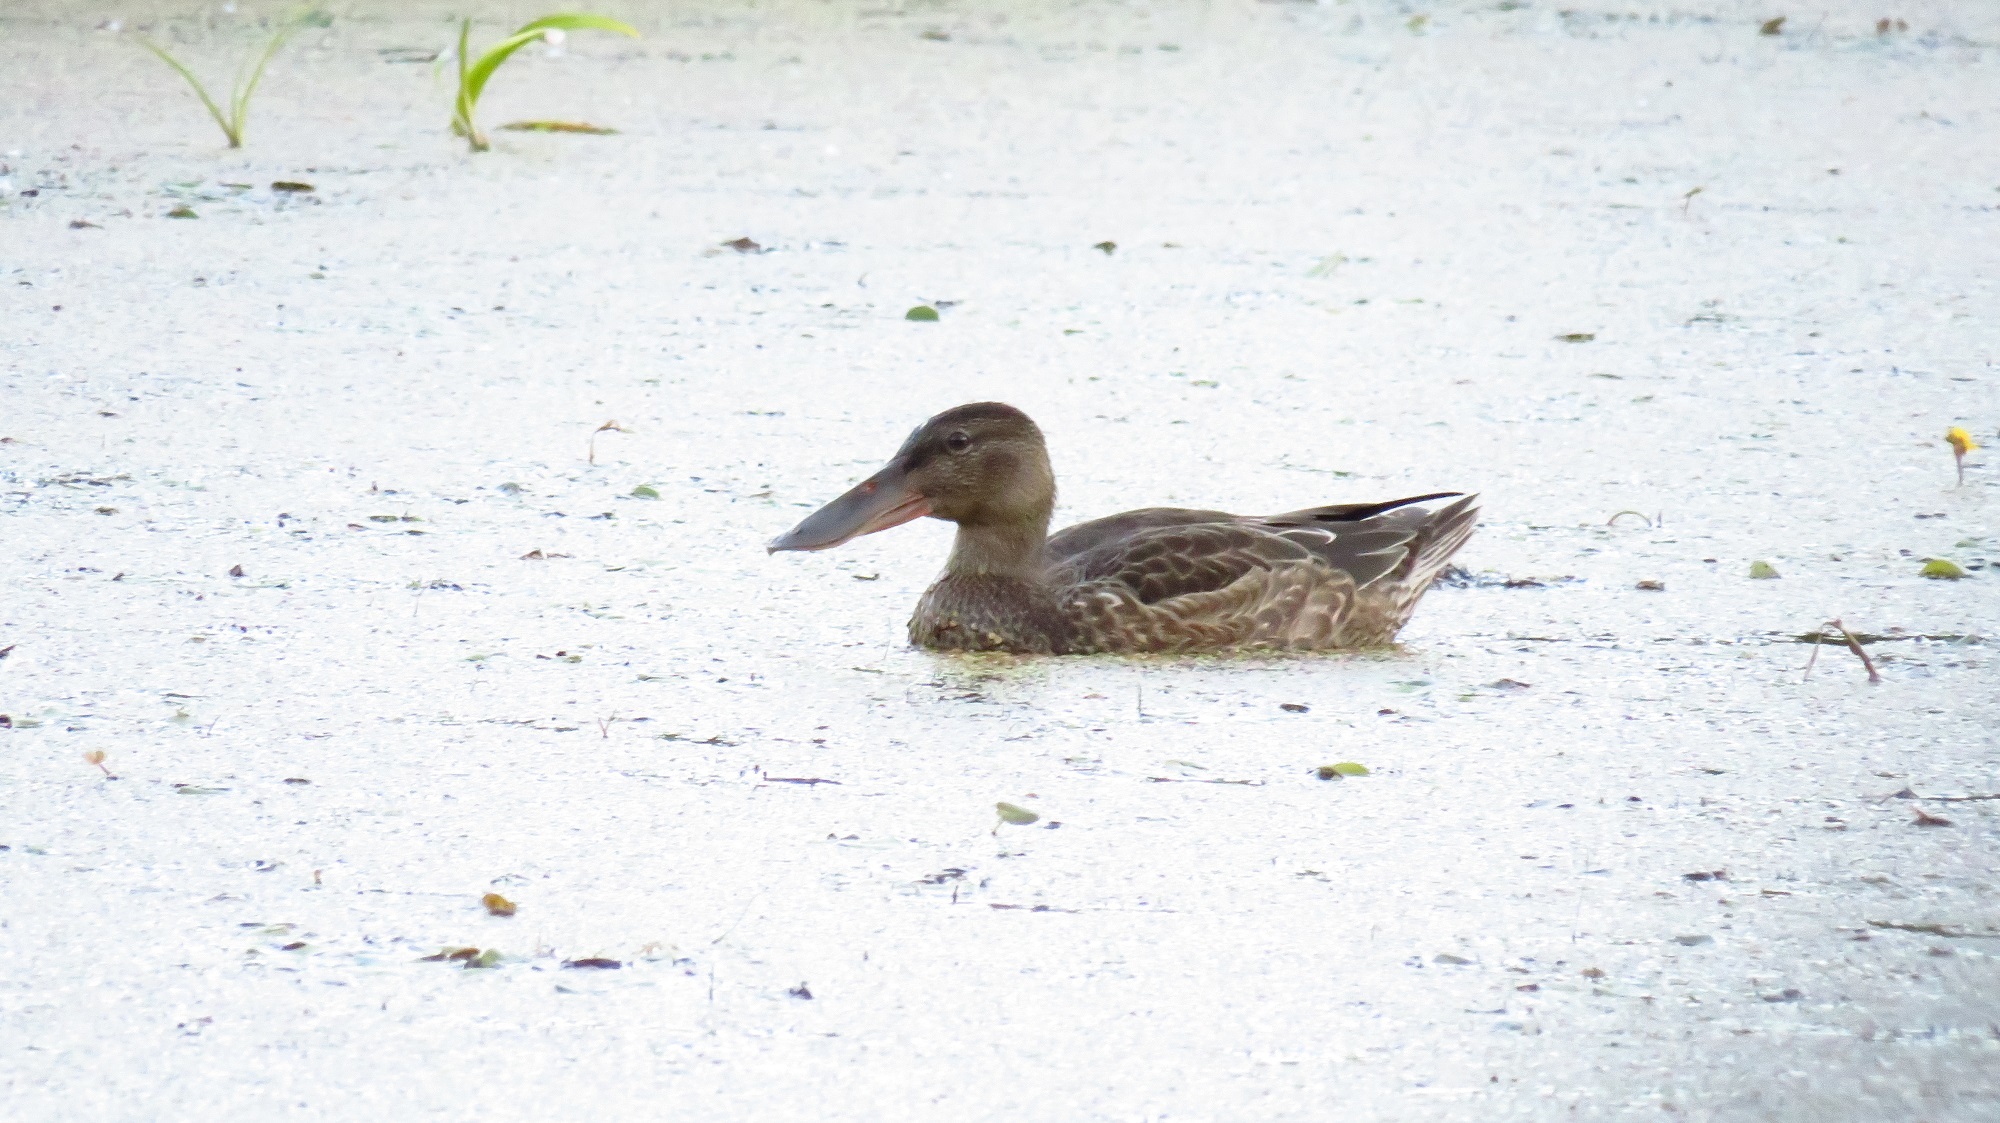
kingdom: Animalia
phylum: Chordata
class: Aves
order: Anseriformes
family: Anatidae
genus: Spatula
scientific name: Spatula clypeata
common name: Northern shoveler
